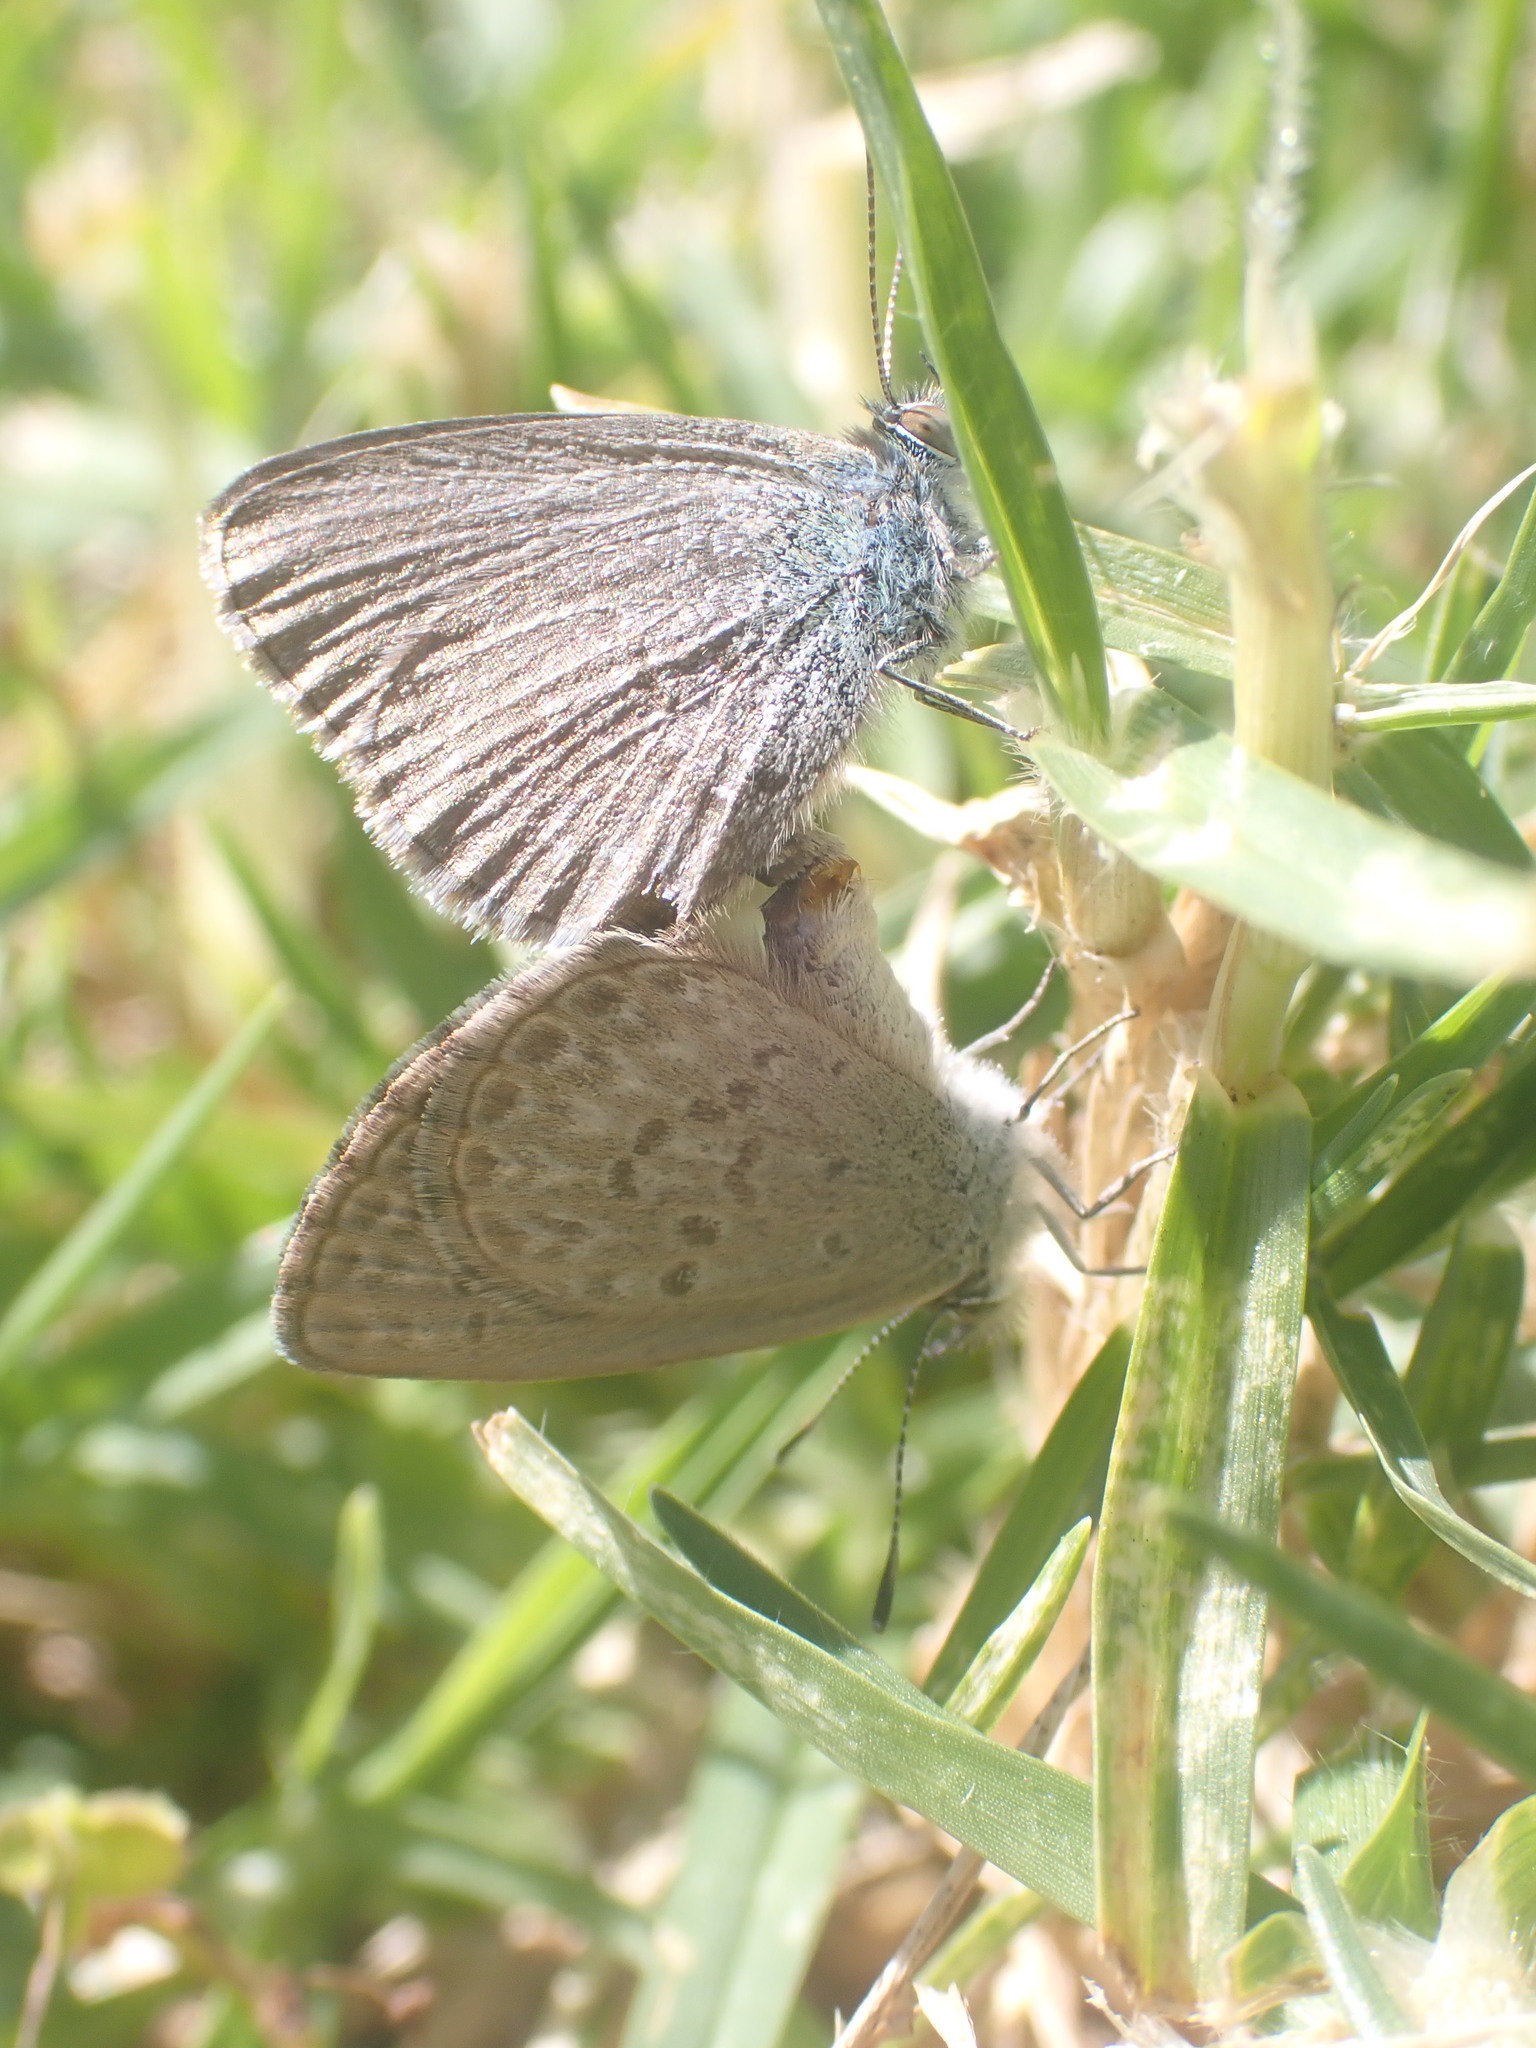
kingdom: Animalia
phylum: Arthropoda
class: Insecta
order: Lepidoptera
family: Lycaenidae
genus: Zizina
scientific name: Zizina labradus
